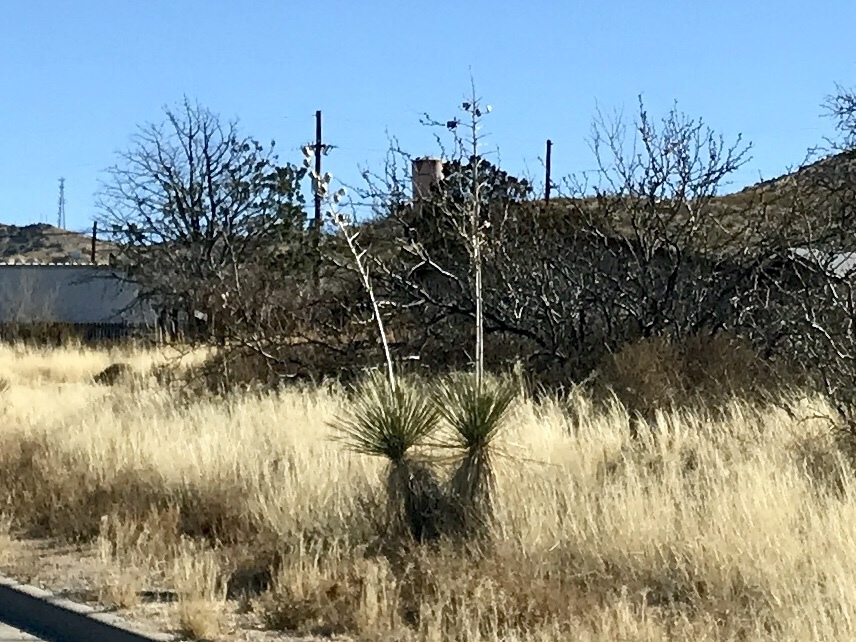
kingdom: Plantae
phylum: Tracheophyta
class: Liliopsida
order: Asparagales
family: Asparagaceae
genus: Yucca
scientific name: Yucca elata
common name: Palmella
